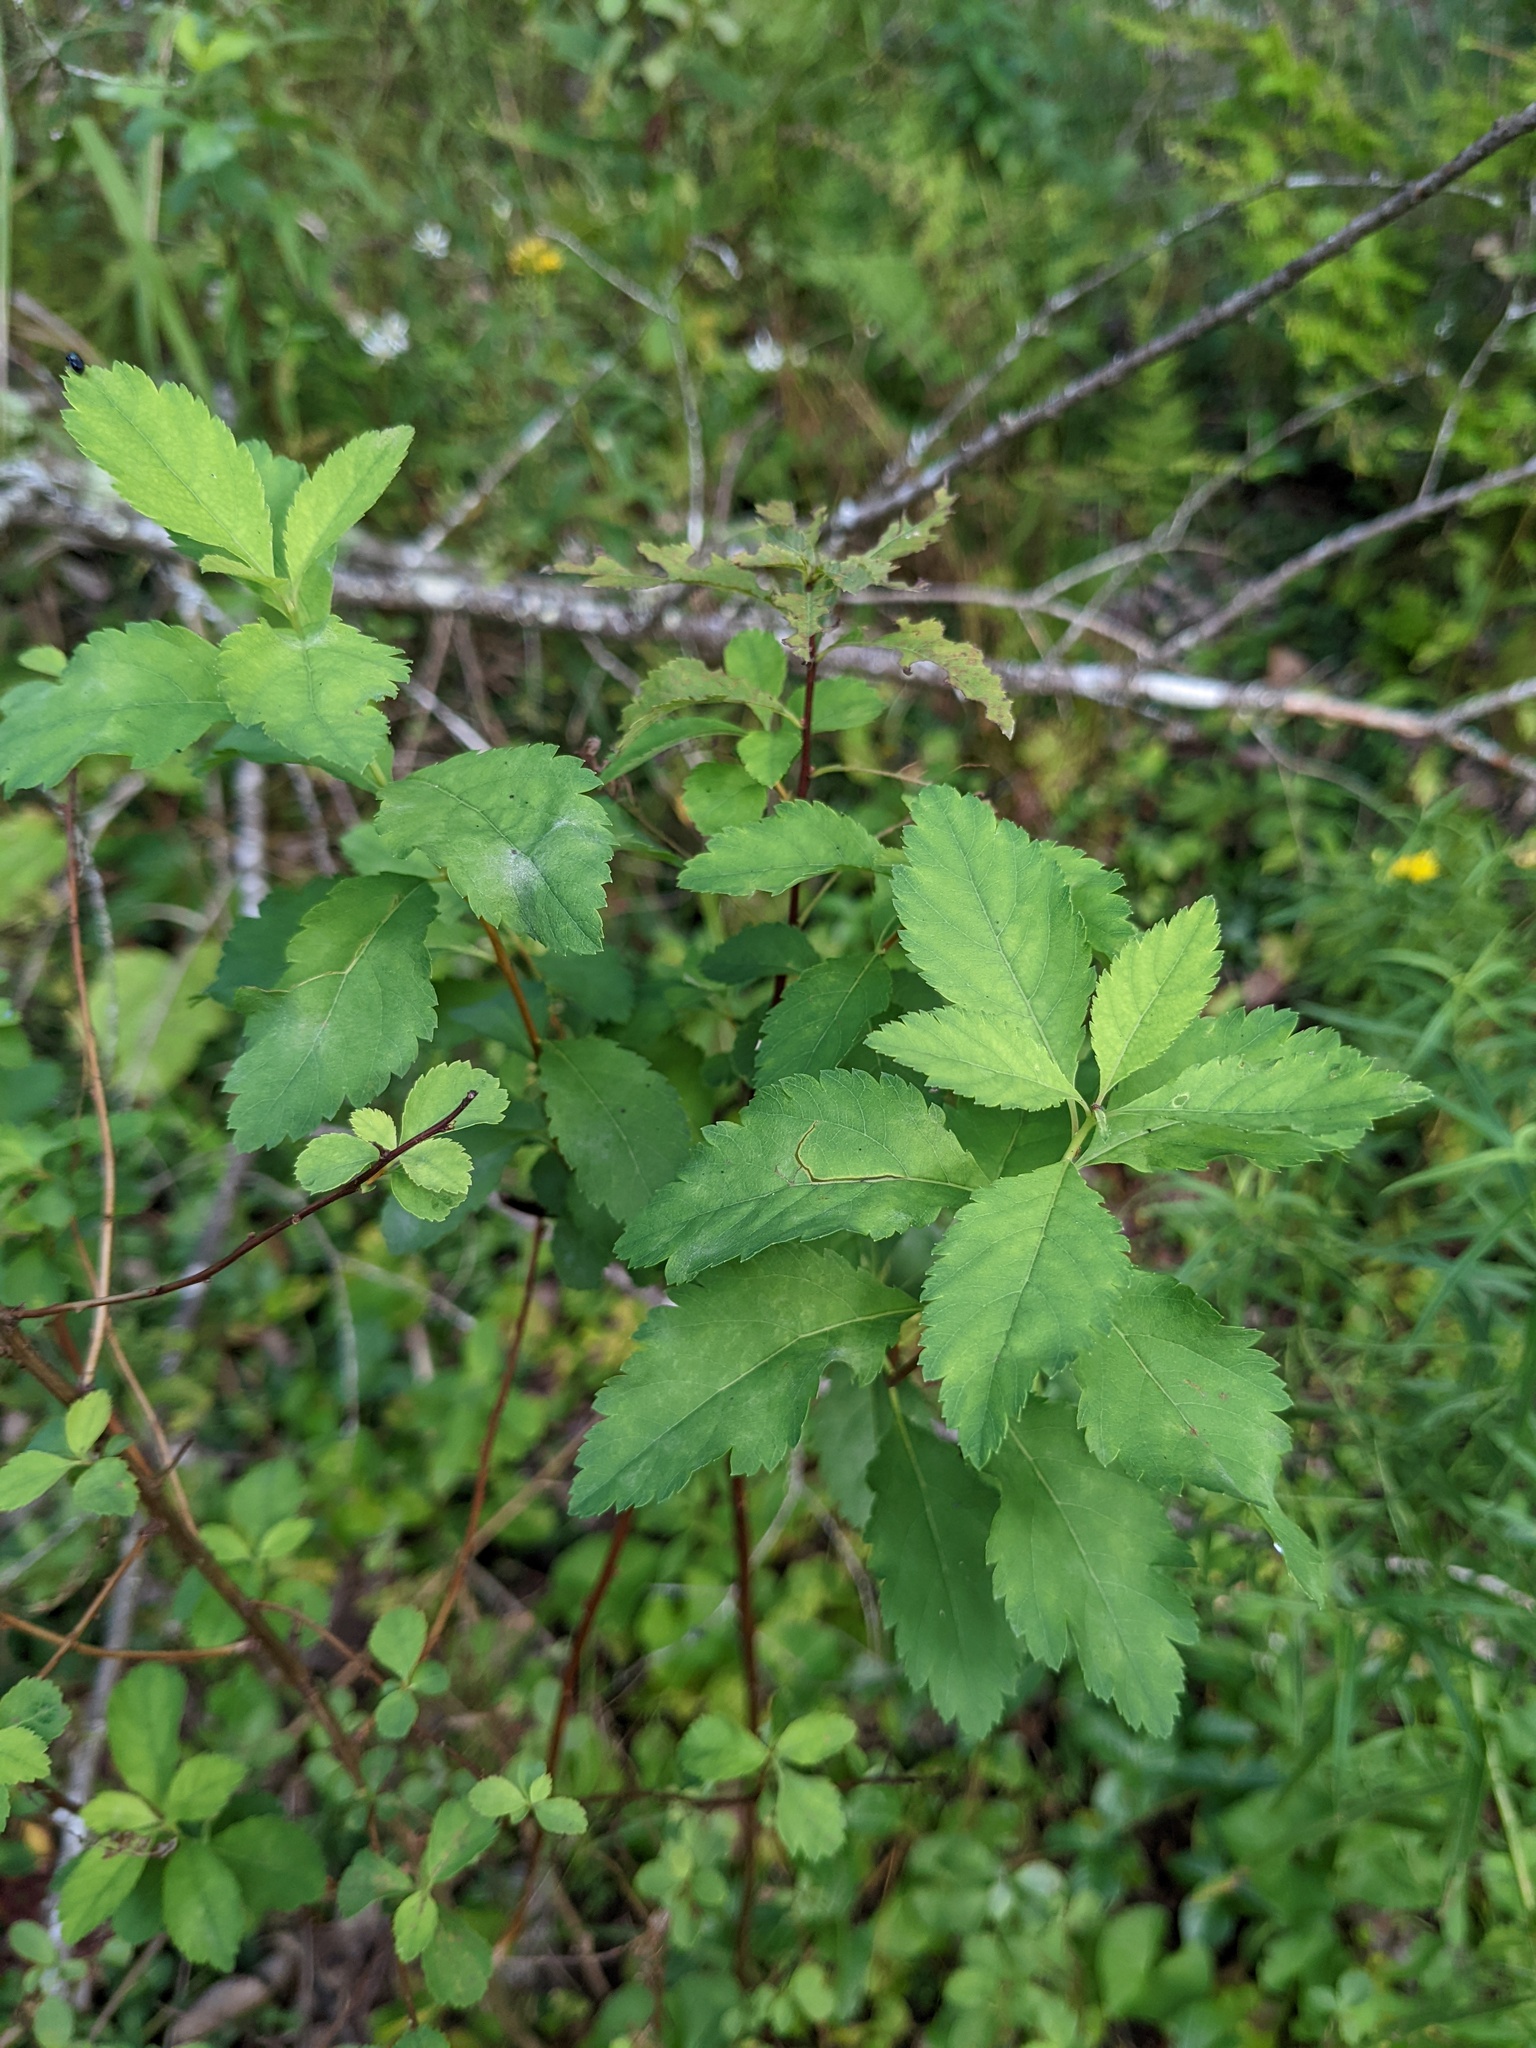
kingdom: Plantae
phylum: Tracheophyta
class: Magnoliopsida
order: Rosales
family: Rosaceae
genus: Spiraea
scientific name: Spiraea alba
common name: Pale bridewort
